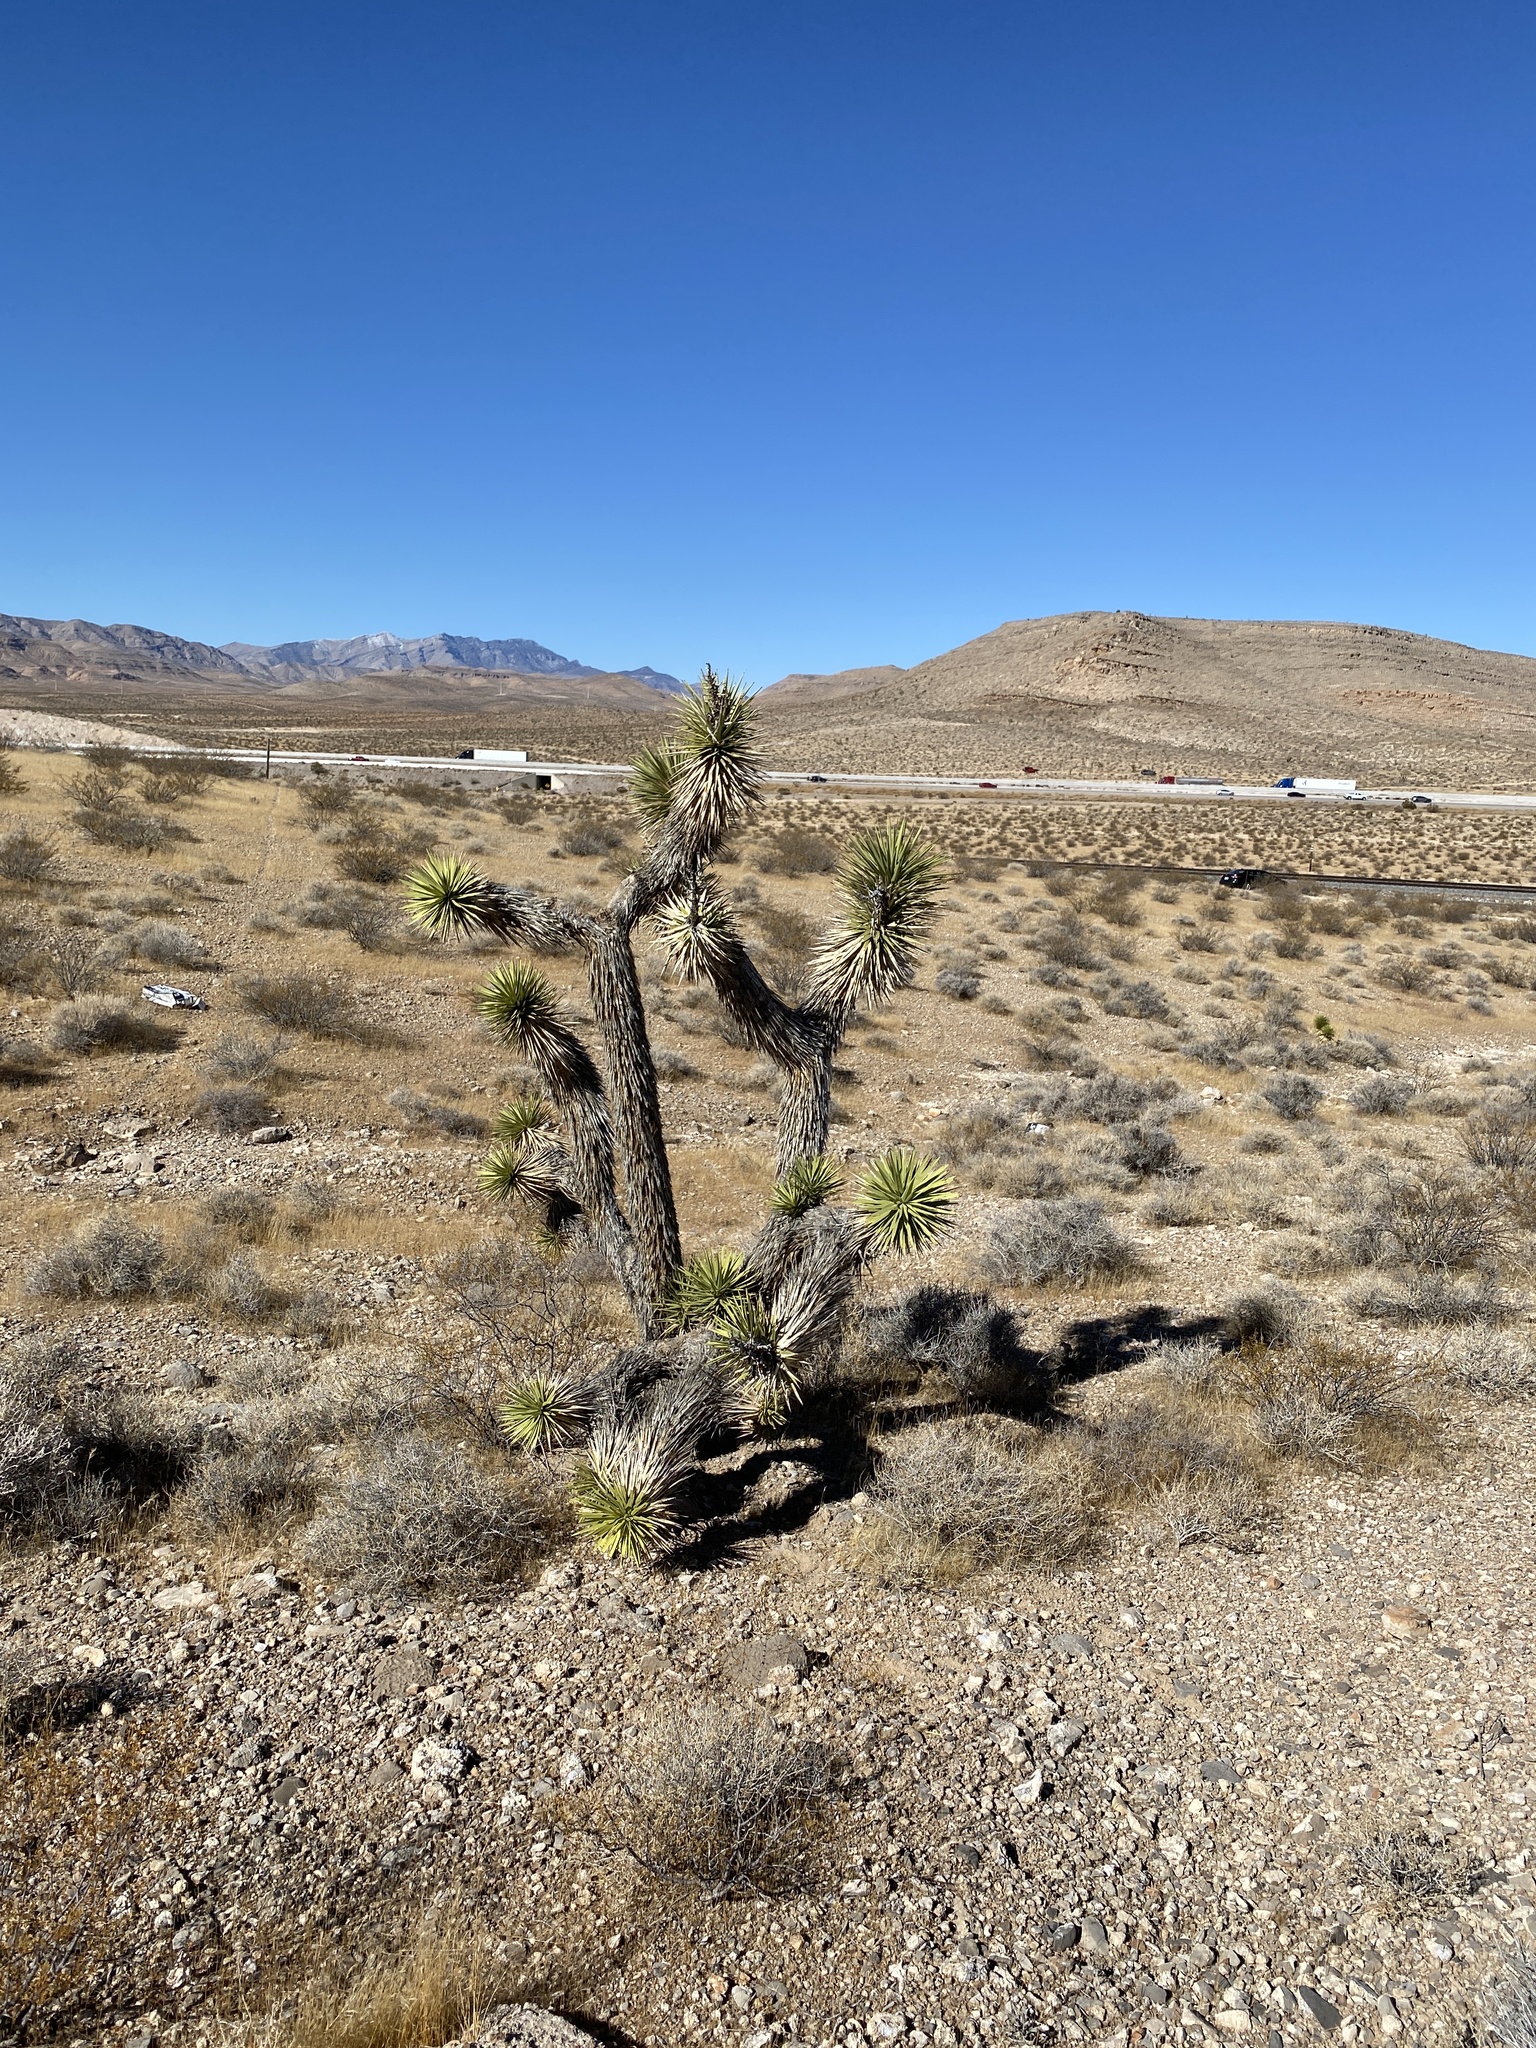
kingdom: Plantae
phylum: Tracheophyta
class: Liliopsida
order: Asparagales
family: Asparagaceae
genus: Yucca
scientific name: Yucca brevifolia
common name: Joshua tree
